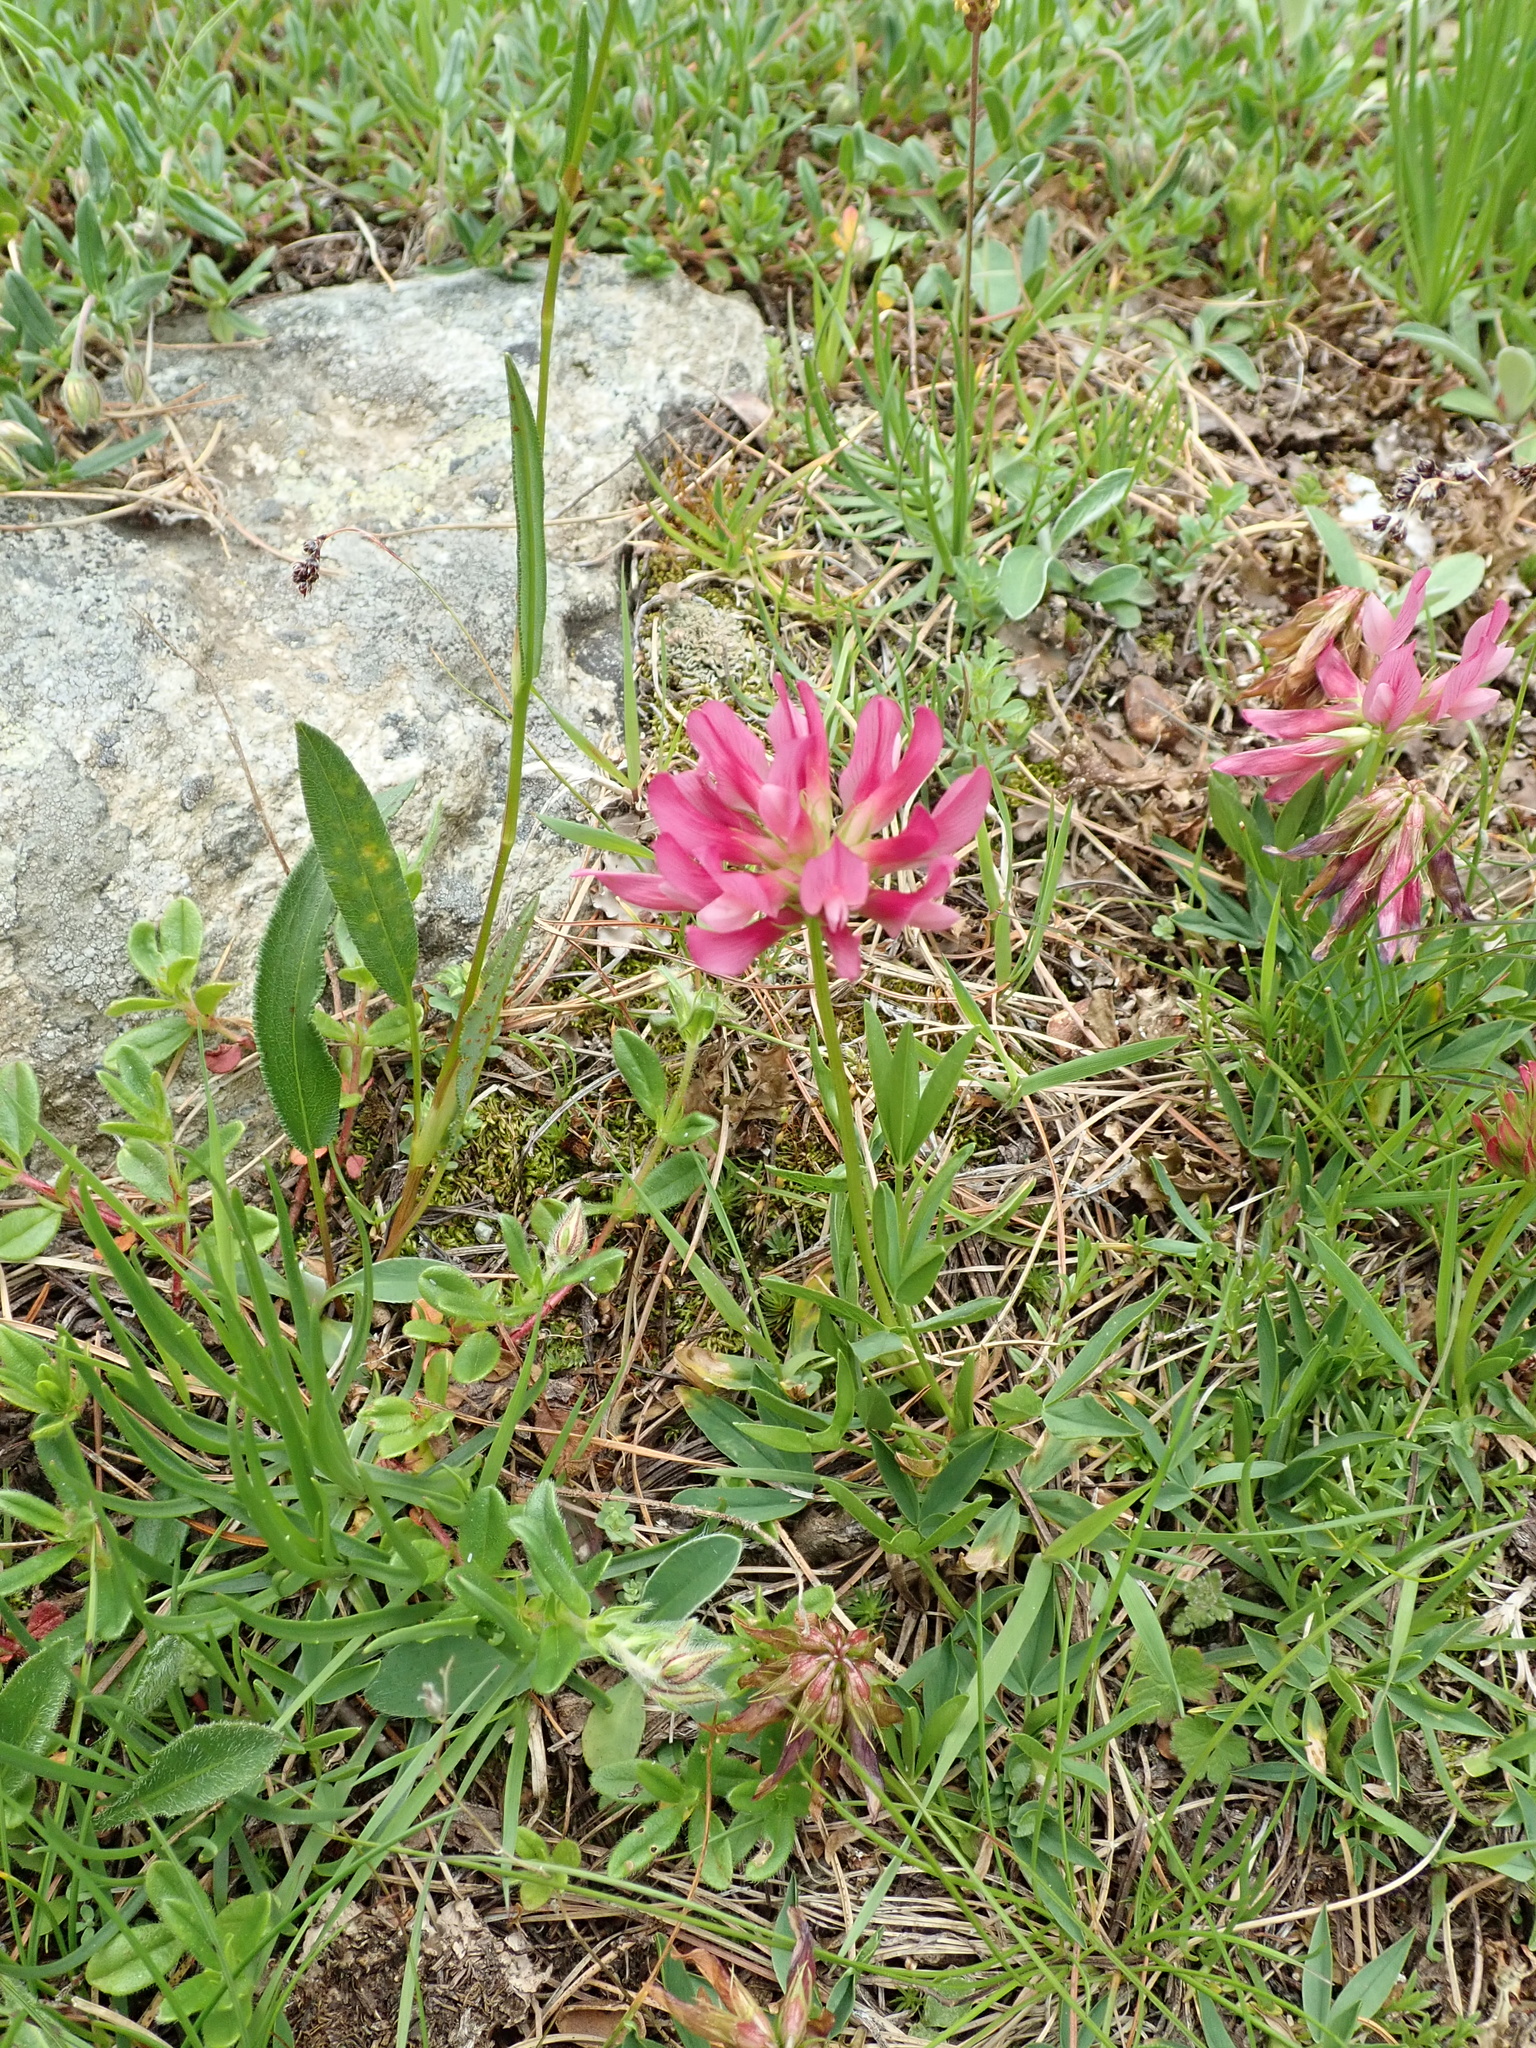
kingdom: Plantae
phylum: Tracheophyta
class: Magnoliopsida
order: Fabales
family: Fabaceae
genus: Trifolium
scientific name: Trifolium alpinum
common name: Alpine clover
